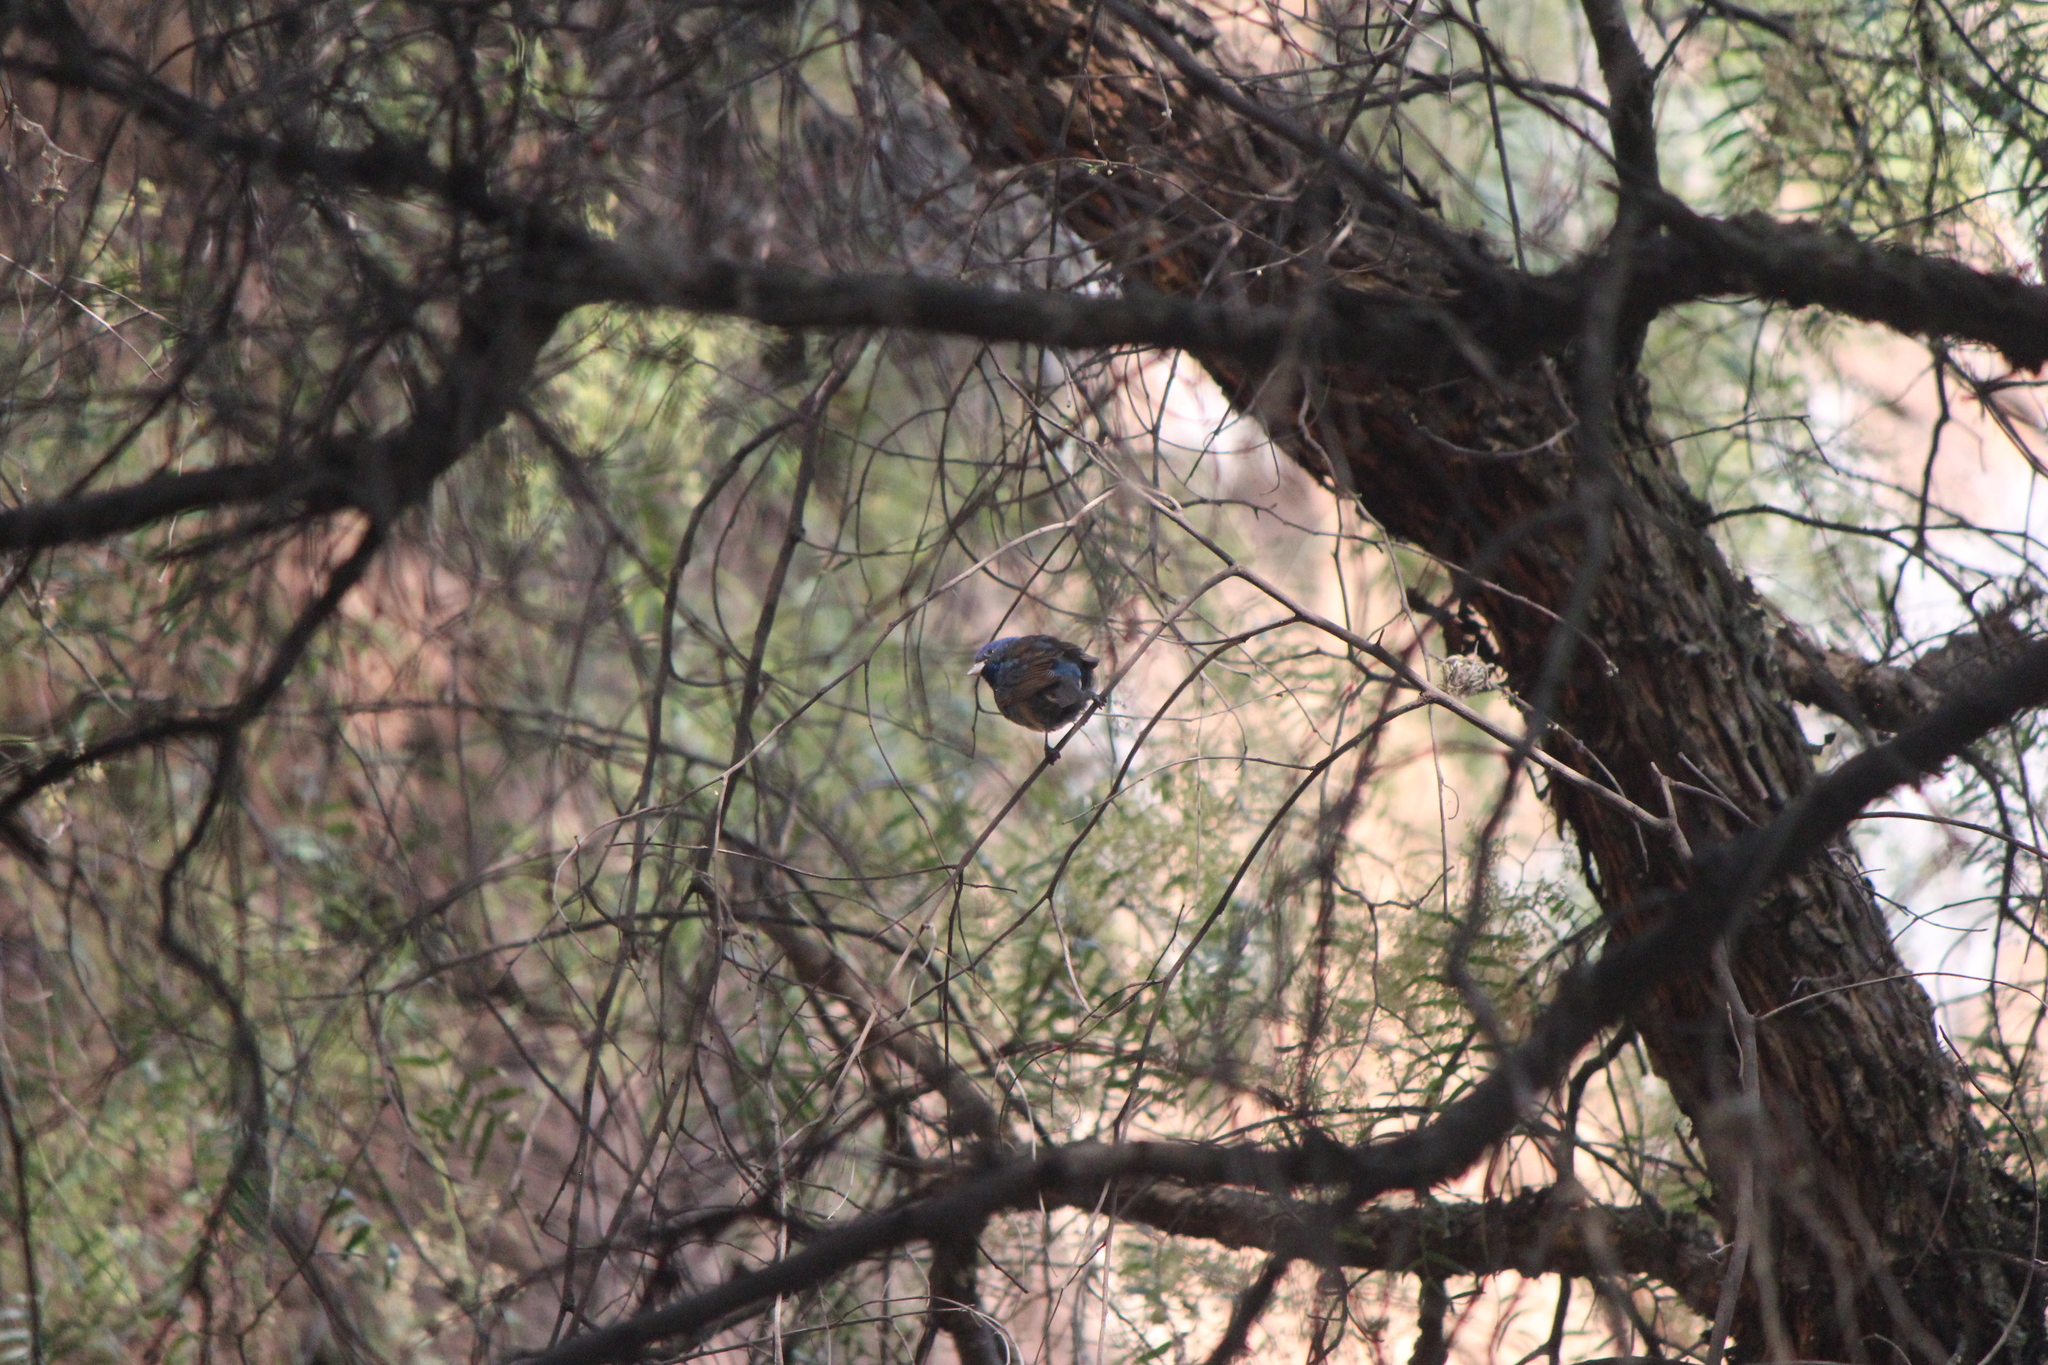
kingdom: Animalia
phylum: Chordata
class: Aves
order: Passeriformes
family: Cardinalidae
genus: Passerina
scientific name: Passerina cyanea
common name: Indigo bunting
